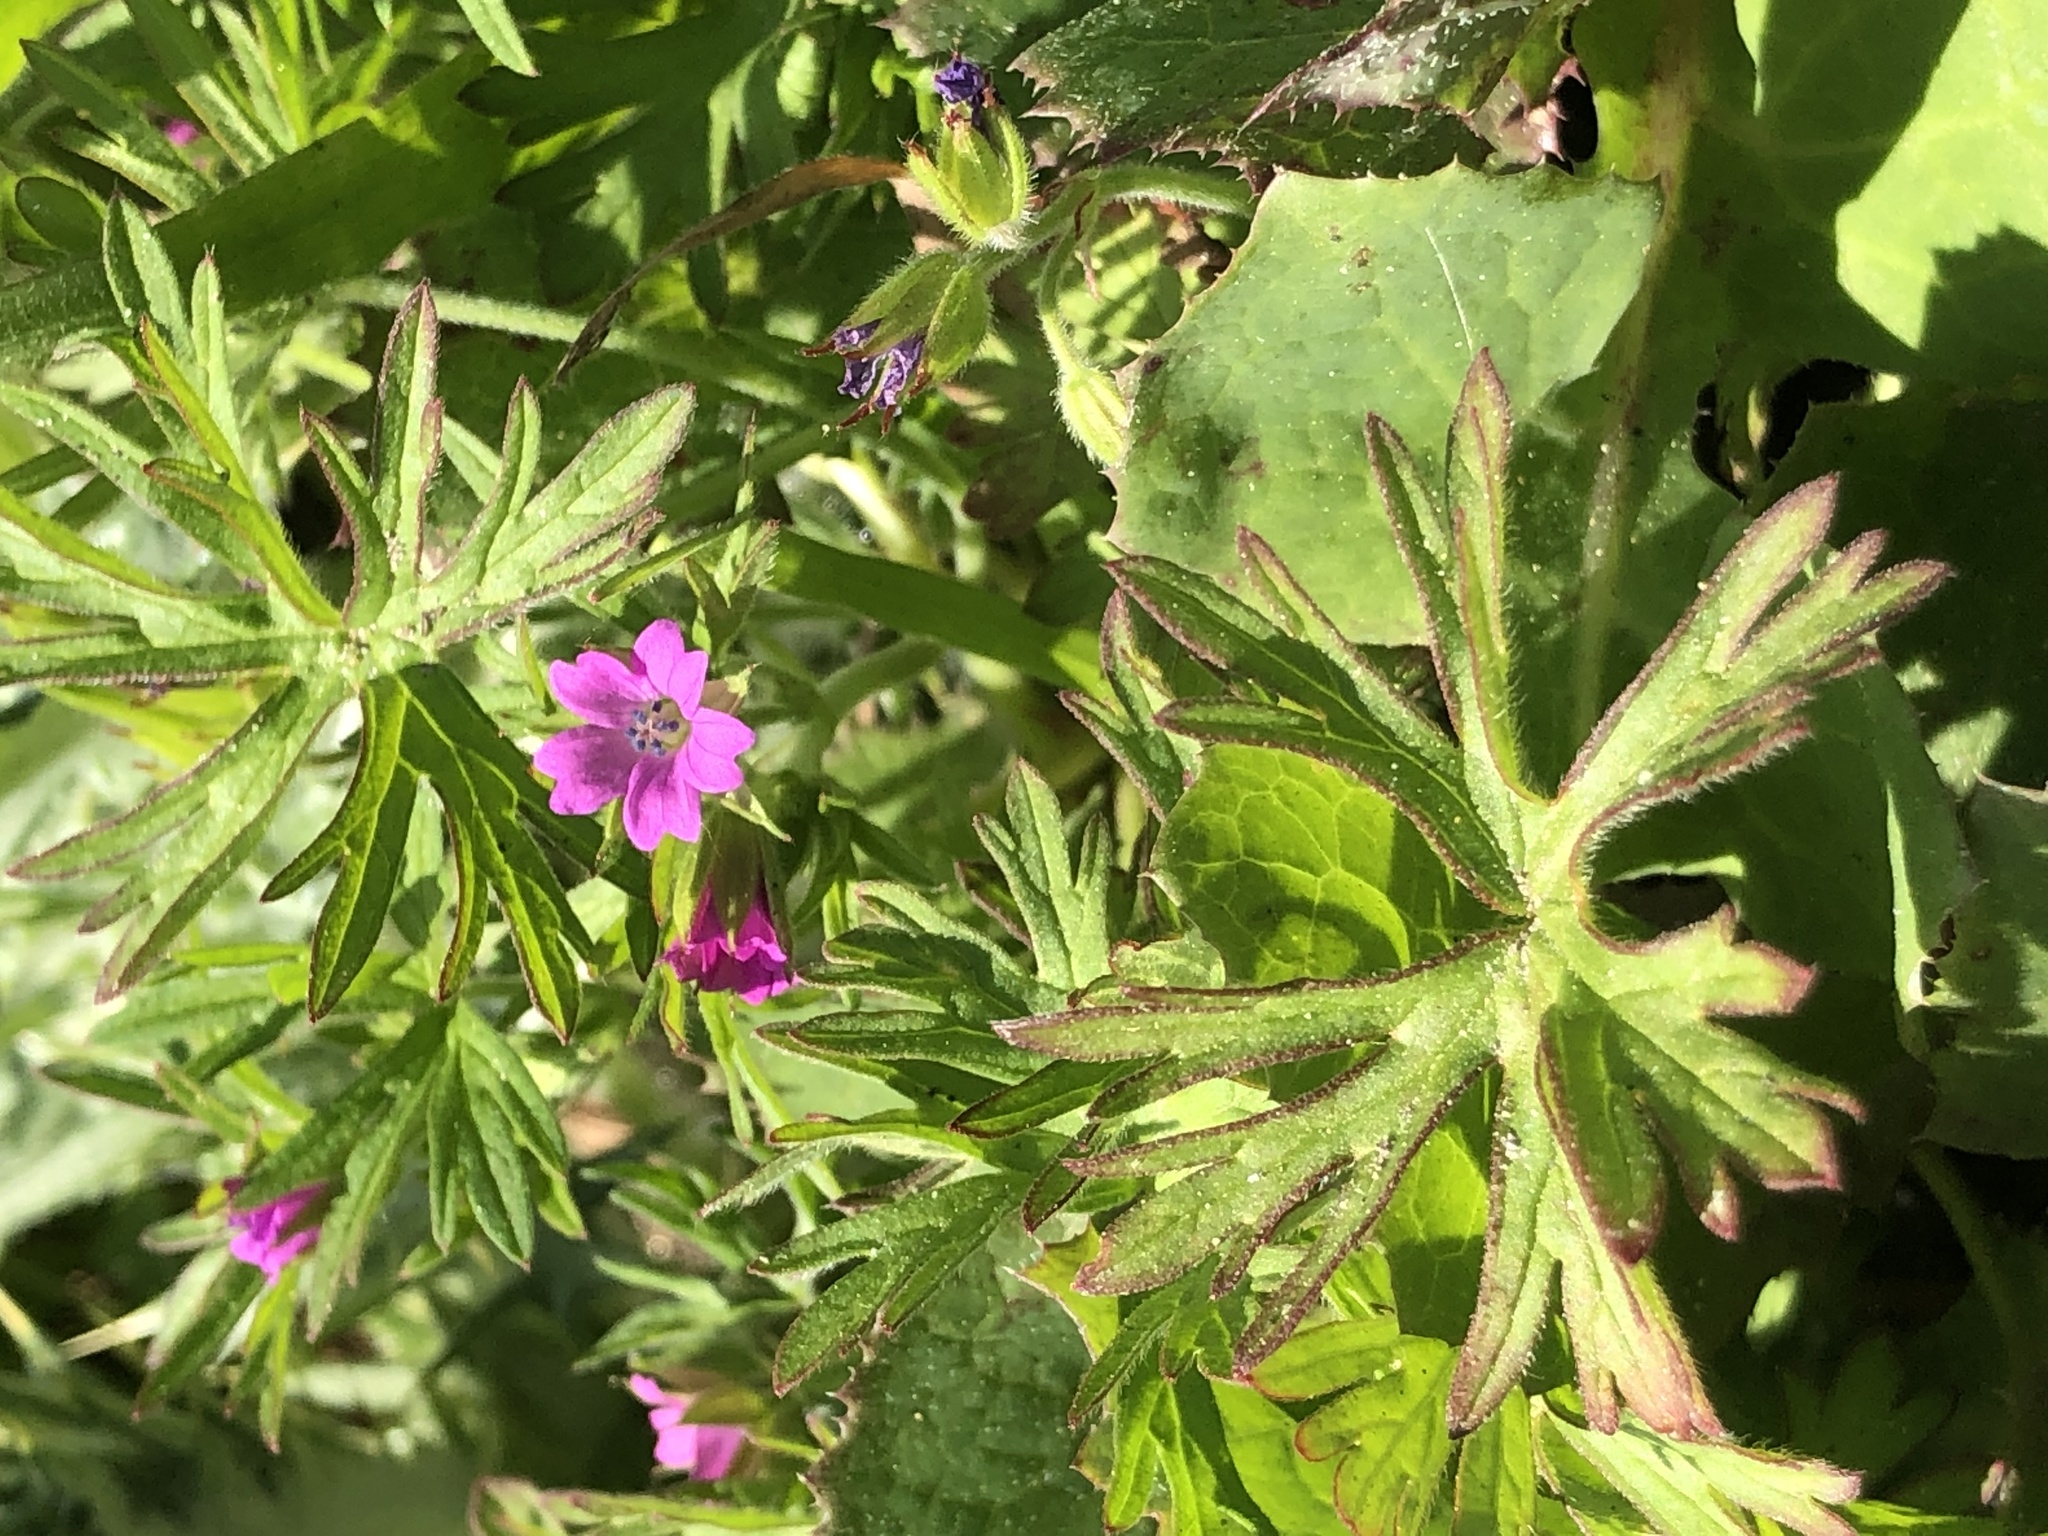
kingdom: Plantae
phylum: Tracheophyta
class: Magnoliopsida
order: Geraniales
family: Geraniaceae
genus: Geranium
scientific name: Geranium dissectum
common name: Cut-leaved crane's-bill
